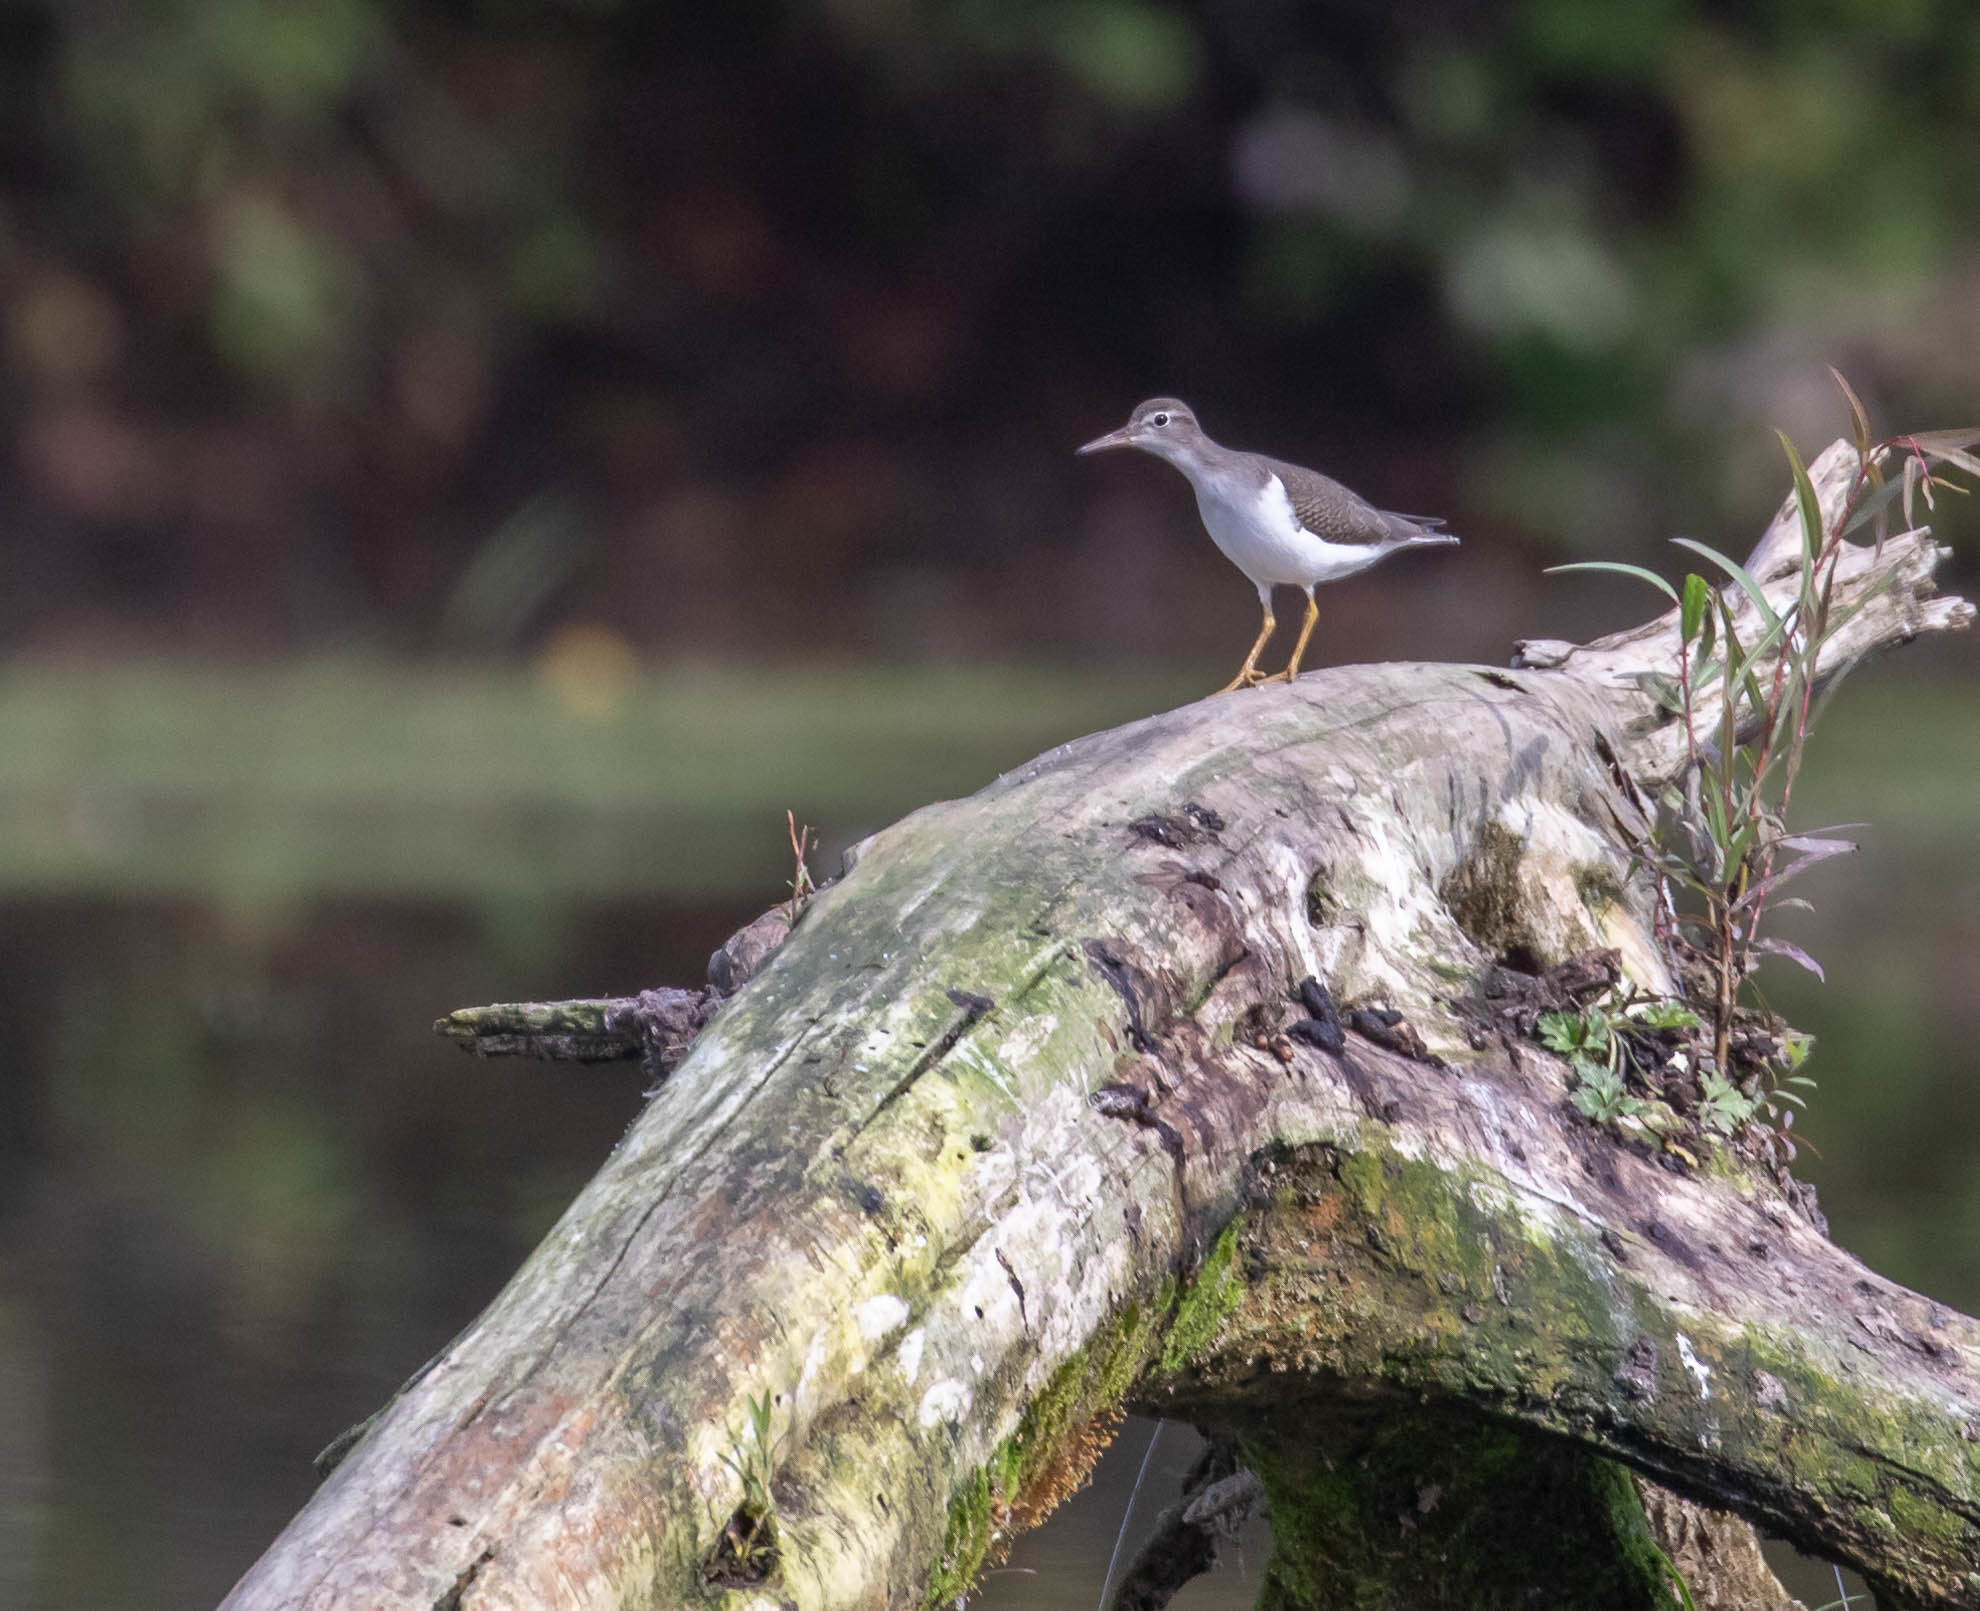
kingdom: Animalia
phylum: Chordata
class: Aves
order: Charadriiformes
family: Scolopacidae
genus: Actitis
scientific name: Actitis macularius
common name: Spotted sandpiper
